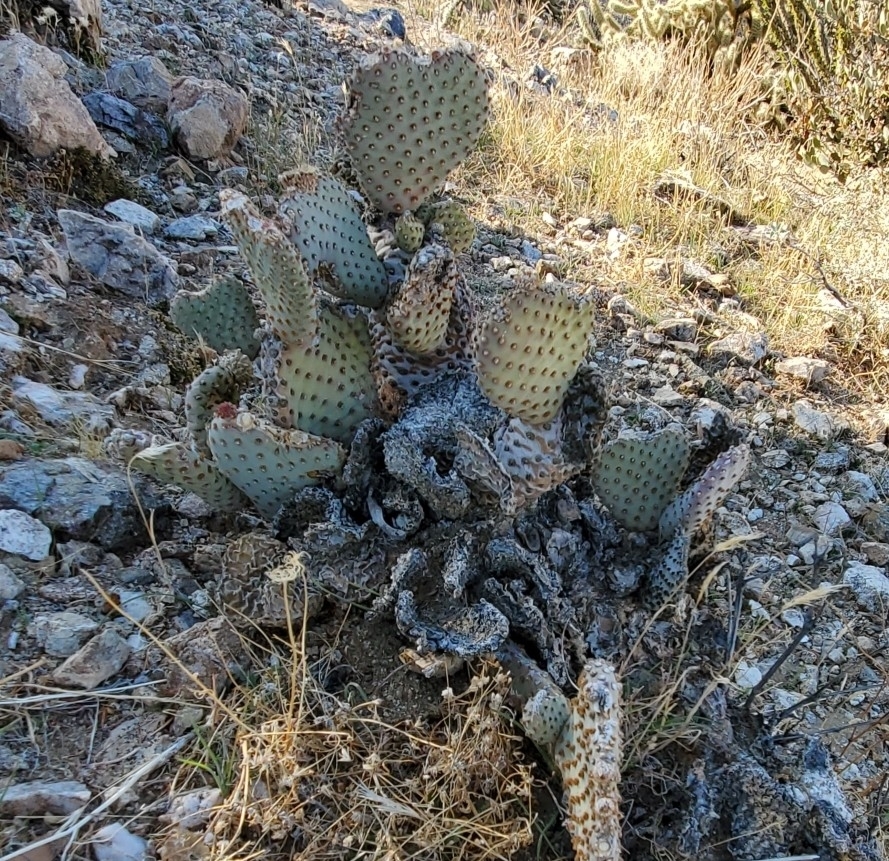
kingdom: Plantae
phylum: Tracheophyta
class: Magnoliopsida
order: Caryophyllales
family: Cactaceae
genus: Opuntia
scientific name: Opuntia basilaris
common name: Beavertail prickly-pear
